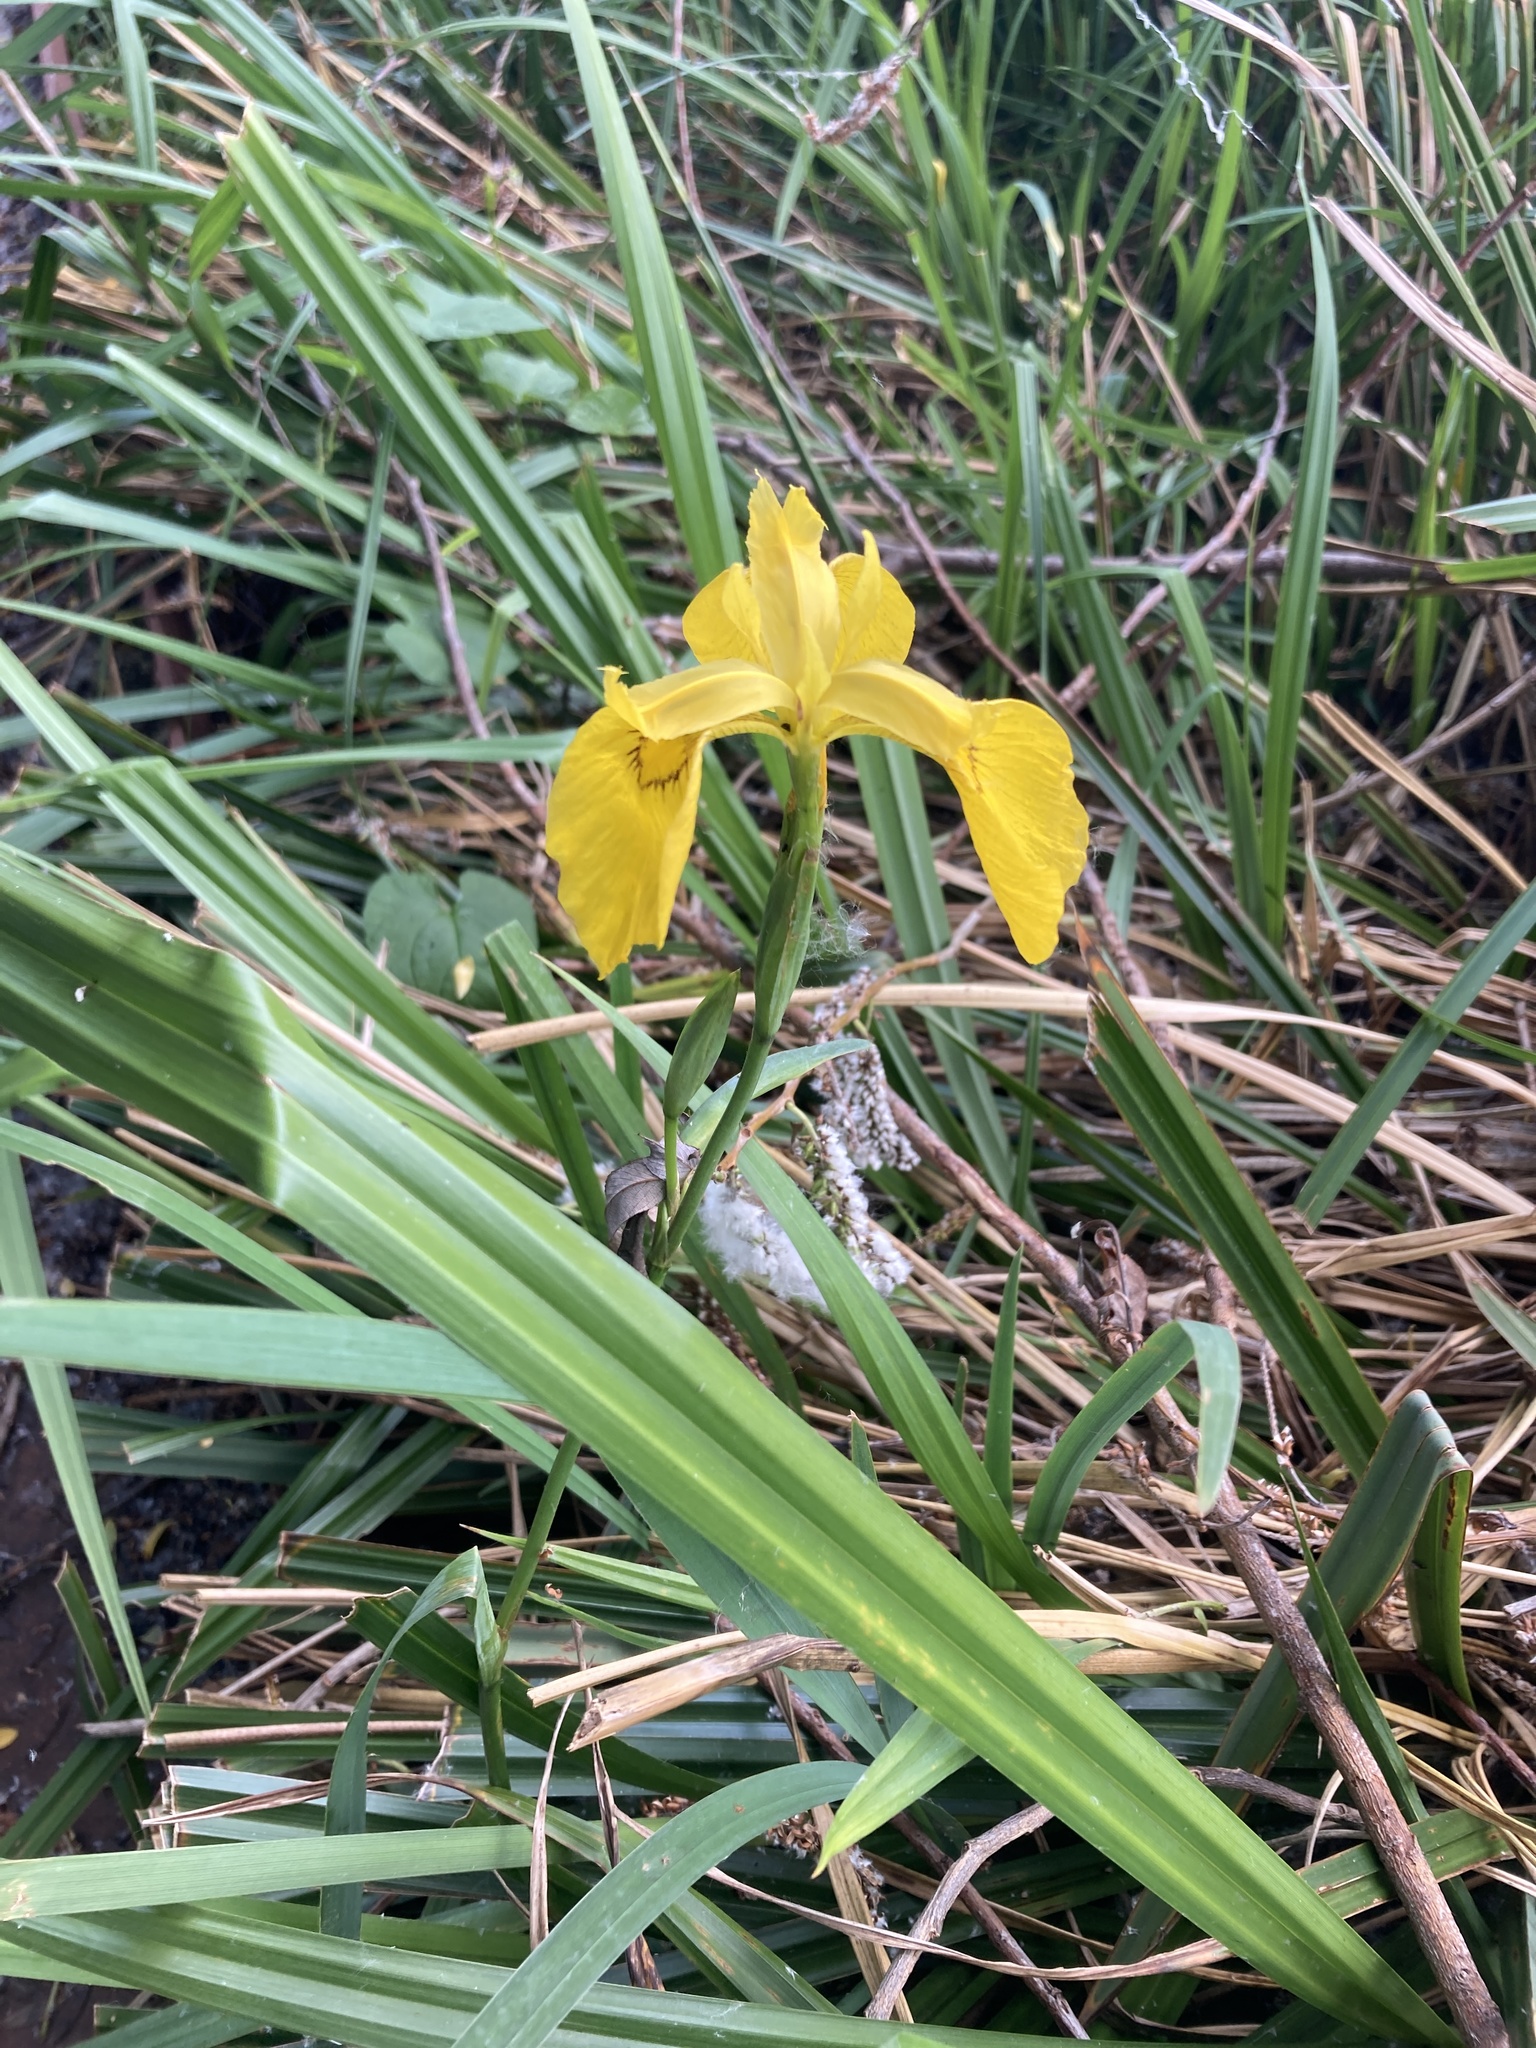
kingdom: Plantae
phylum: Tracheophyta
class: Liliopsida
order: Asparagales
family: Iridaceae
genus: Iris
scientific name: Iris pseudacorus
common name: Yellow flag
